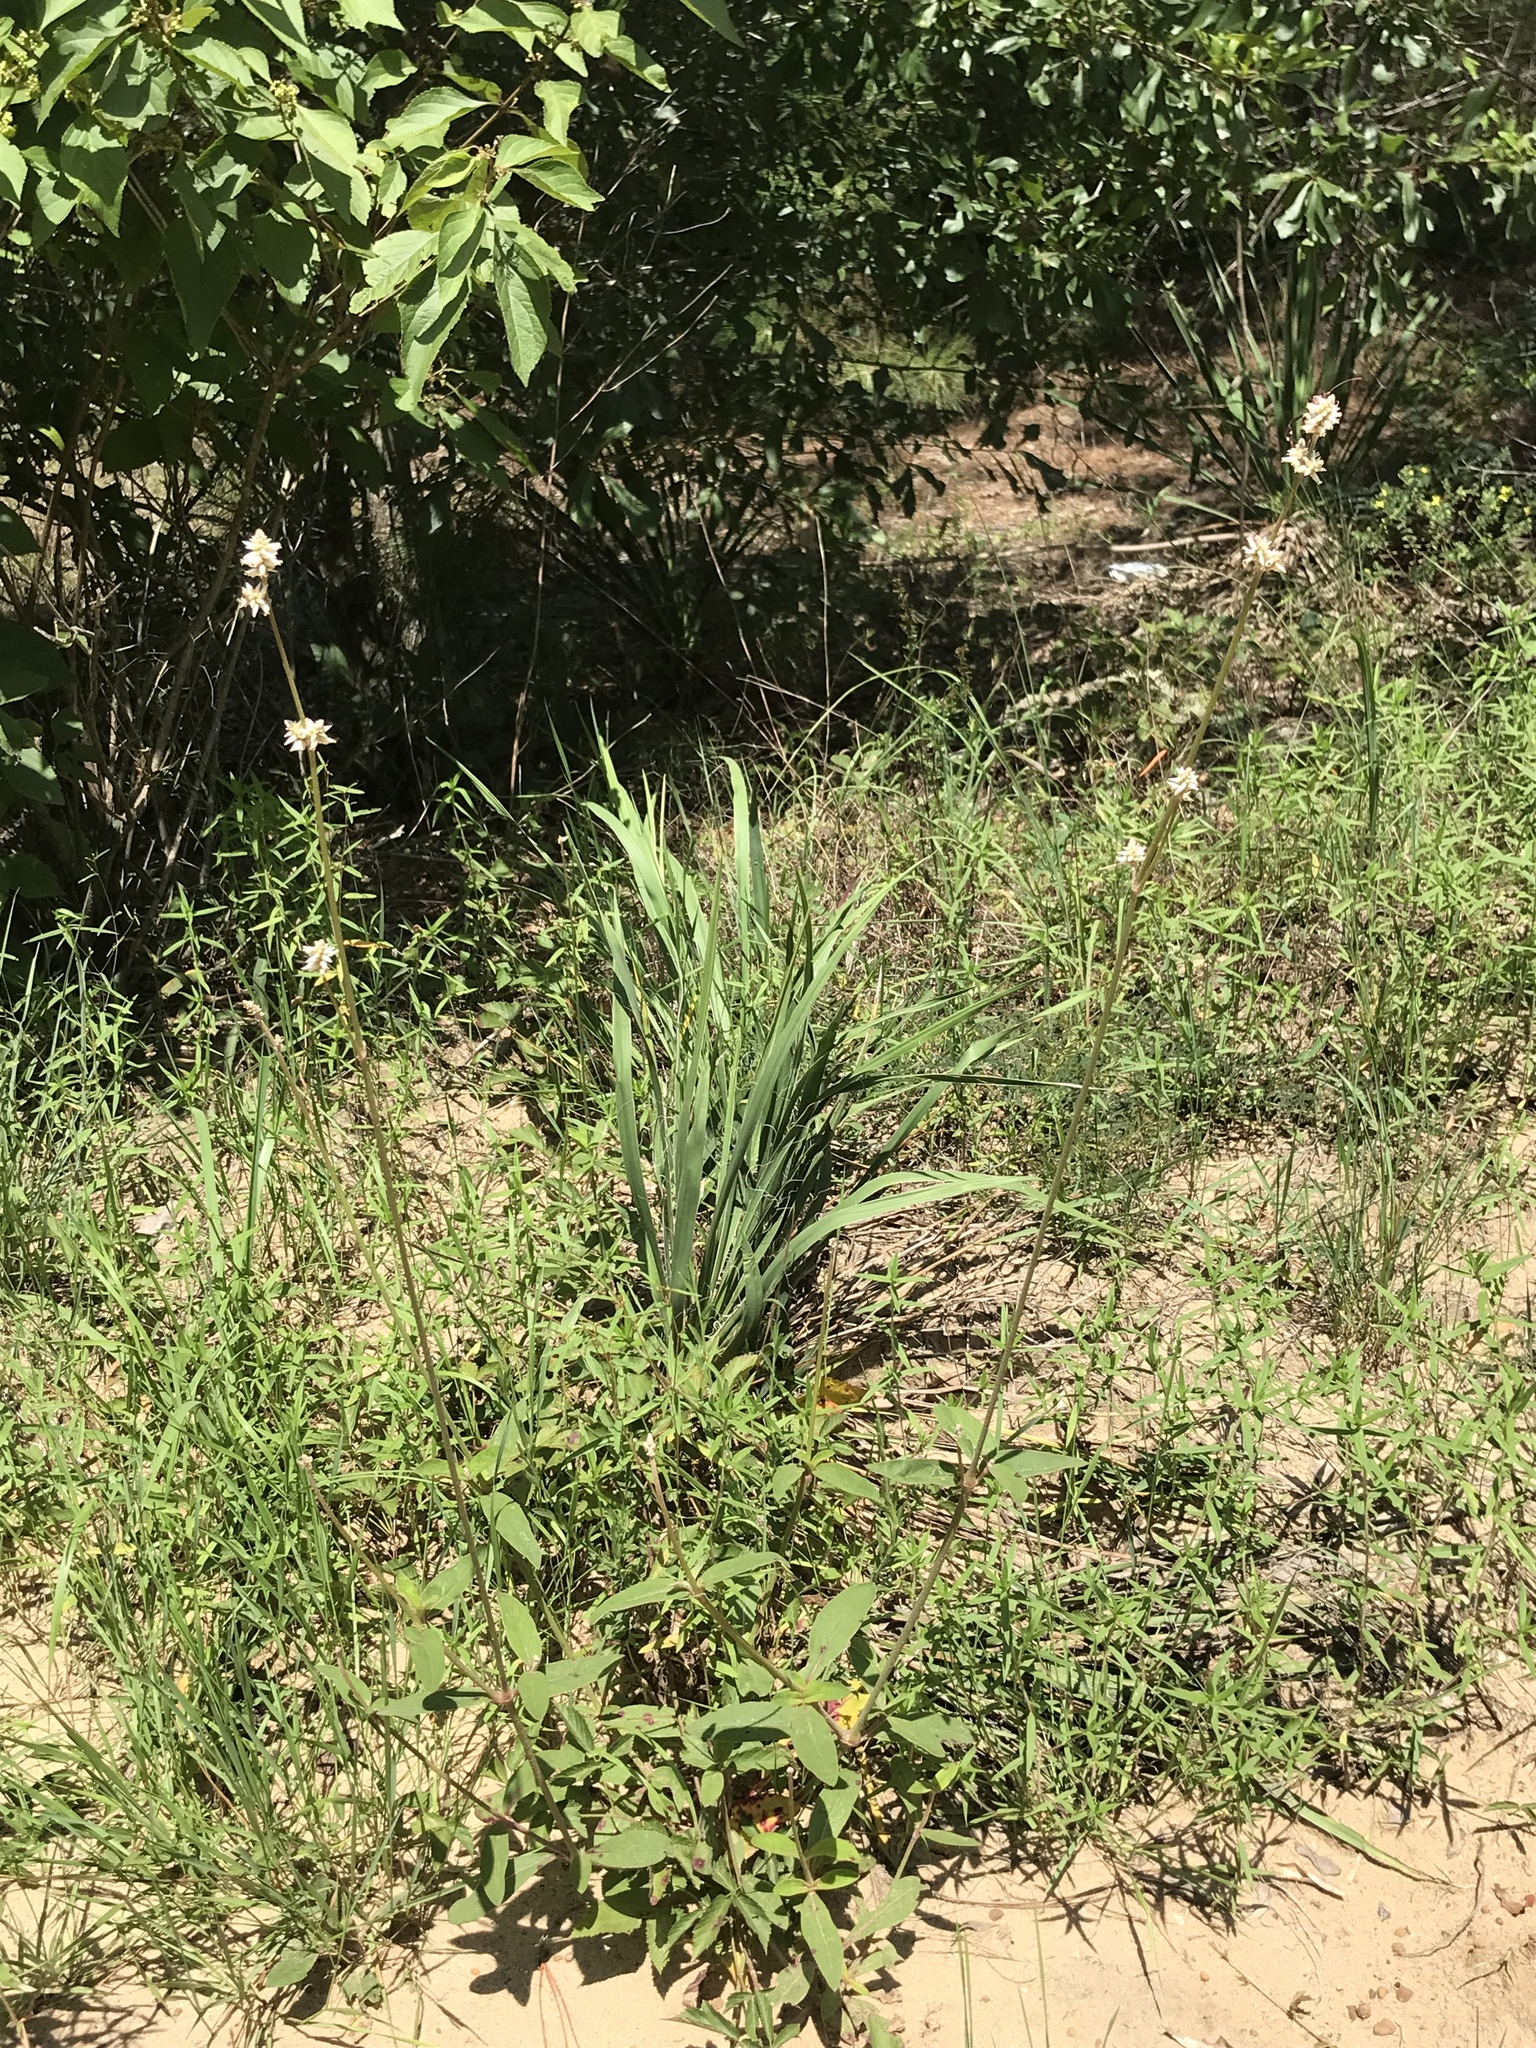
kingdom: Plantae
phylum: Tracheophyta
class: Magnoliopsida
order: Caryophyllales
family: Amaranthaceae
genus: Froelichia
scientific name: Froelichia floridana
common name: Florida snake-cotton
